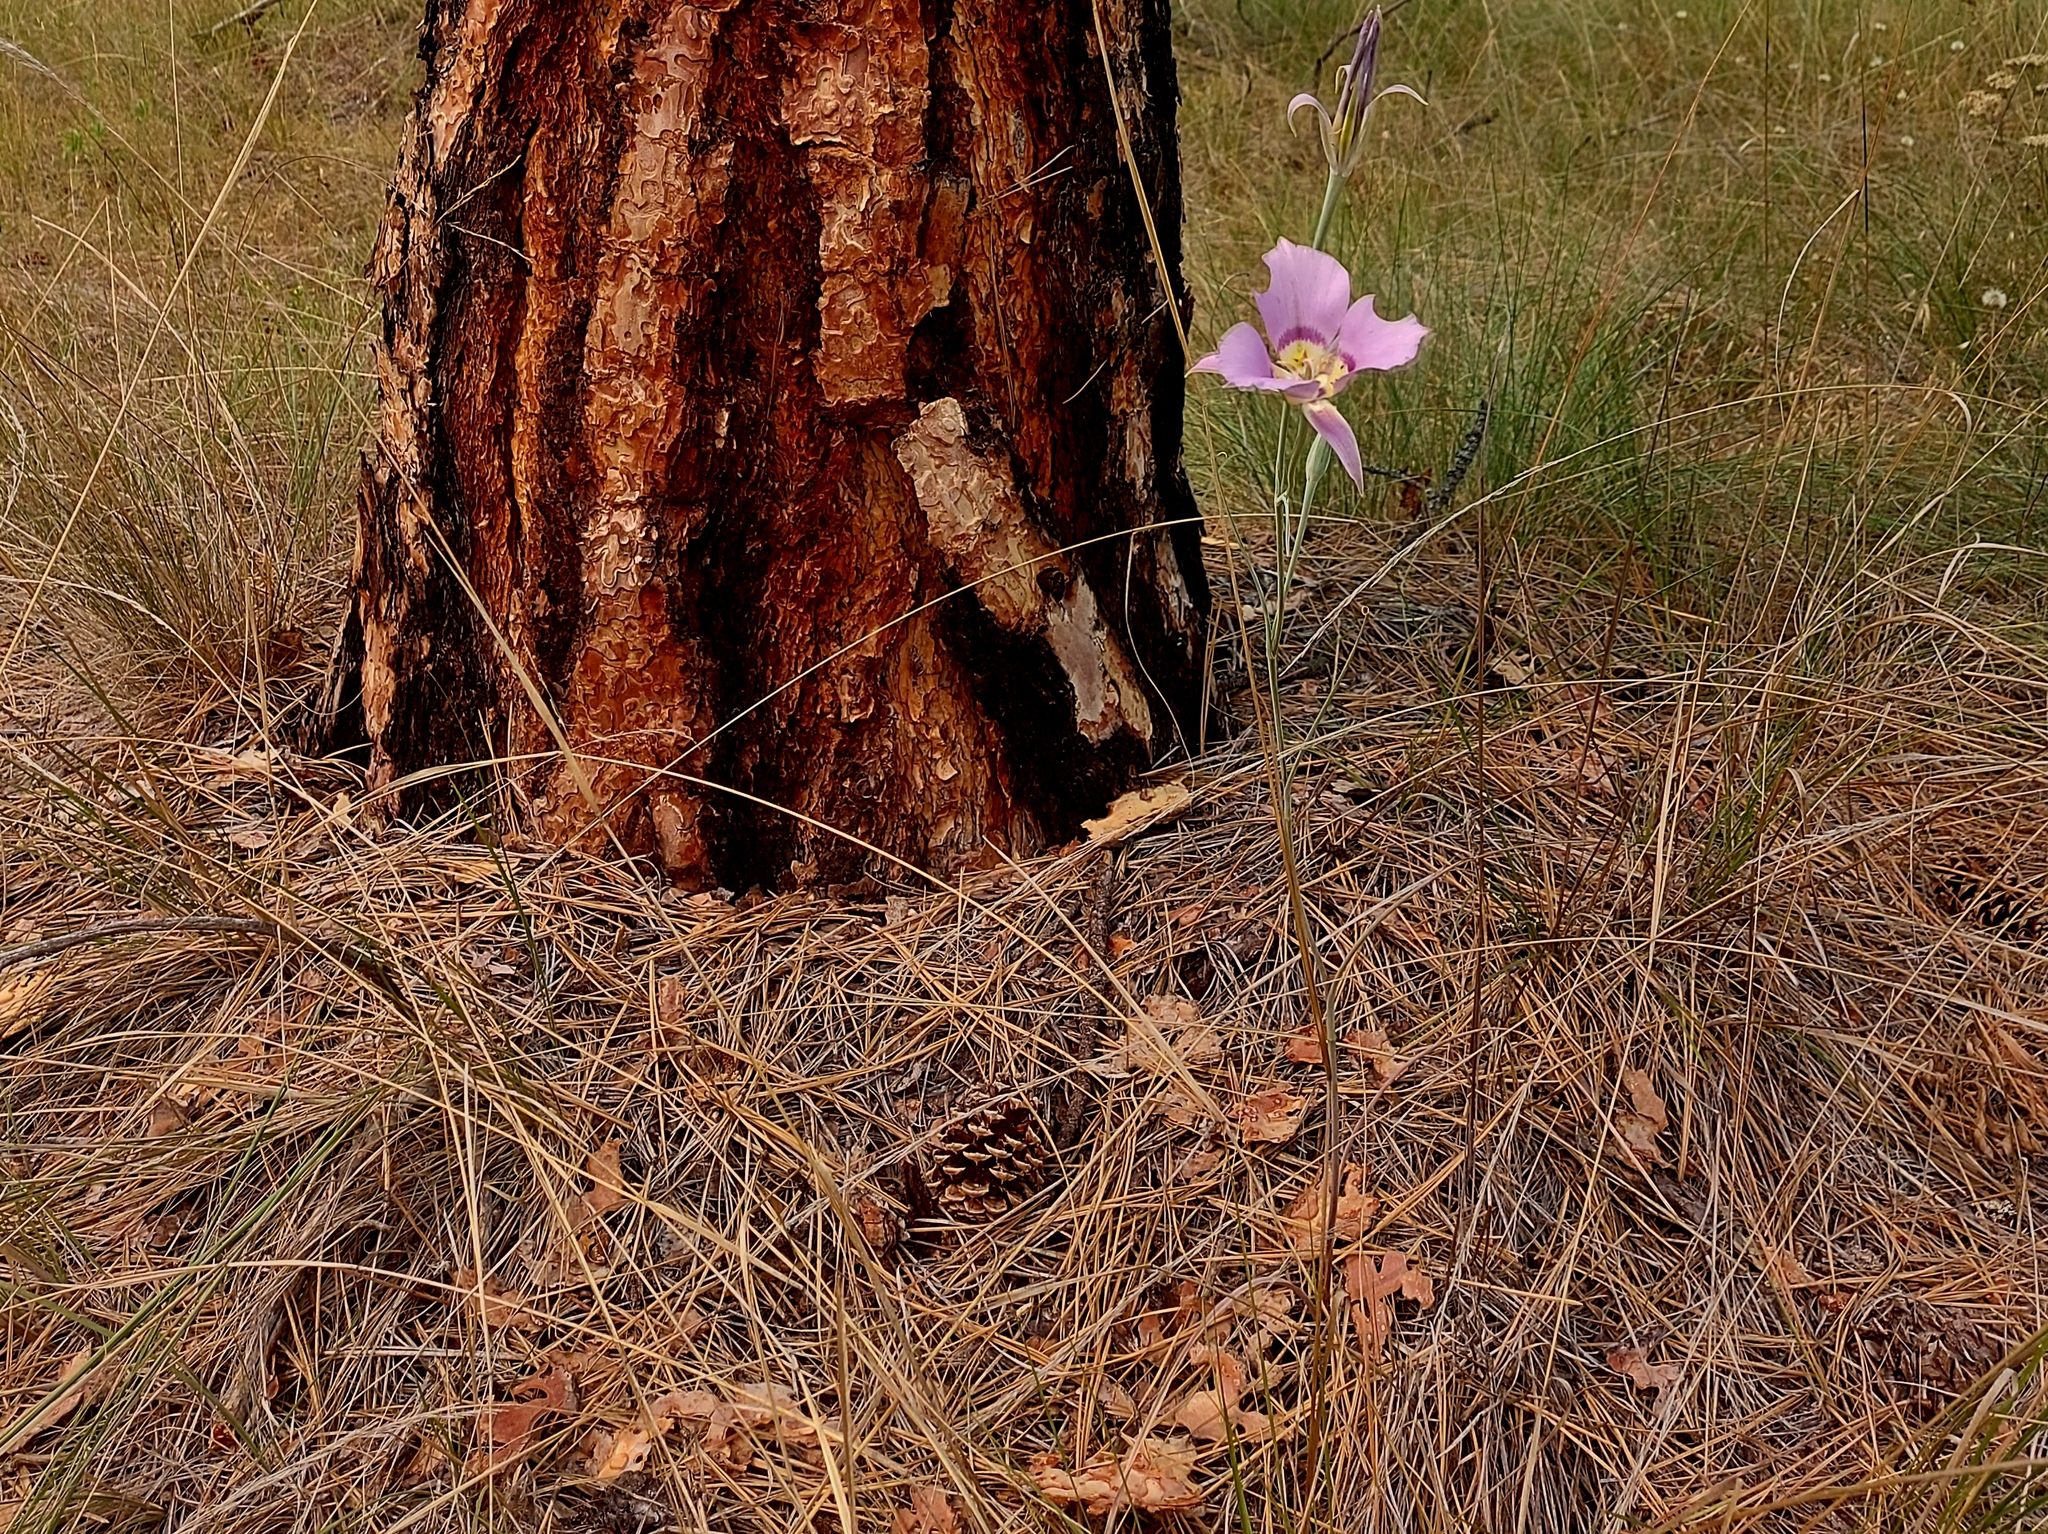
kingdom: Plantae
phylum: Tracheophyta
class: Liliopsida
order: Liliales
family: Liliaceae
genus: Calochortus
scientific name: Calochortus macrocarpus
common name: Green-band mariposa lily
